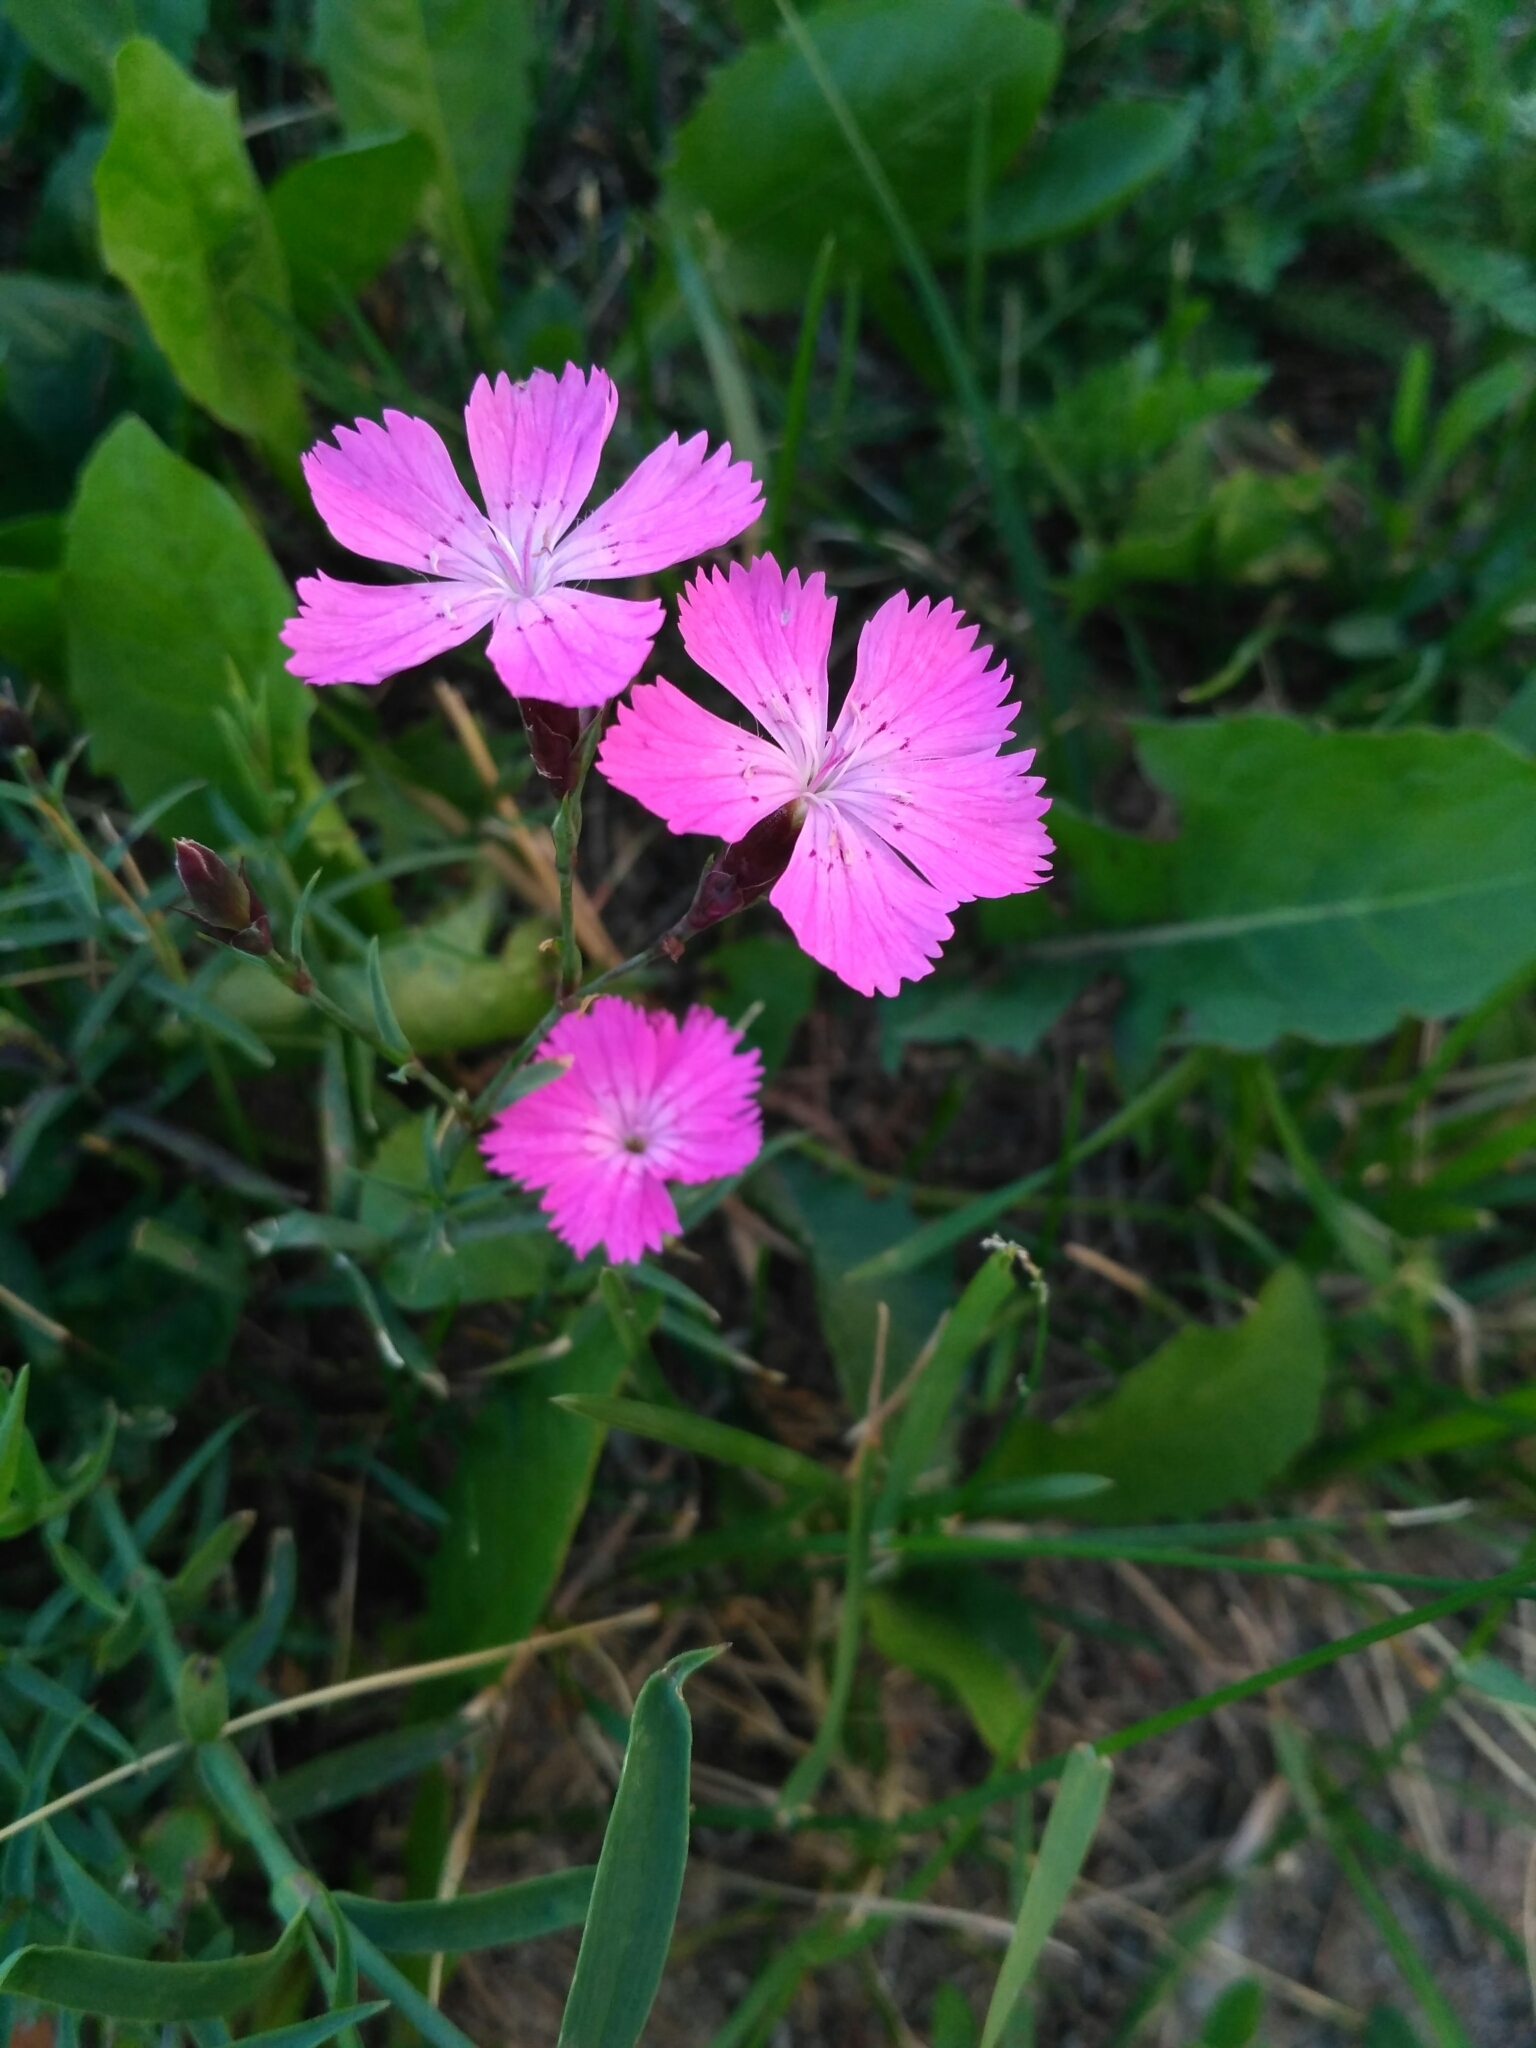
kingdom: Plantae
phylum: Tracheophyta
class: Magnoliopsida
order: Caryophyllales
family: Caryophyllaceae
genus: Dianthus
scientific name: Dianthus chinensis
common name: Rainbow pink
